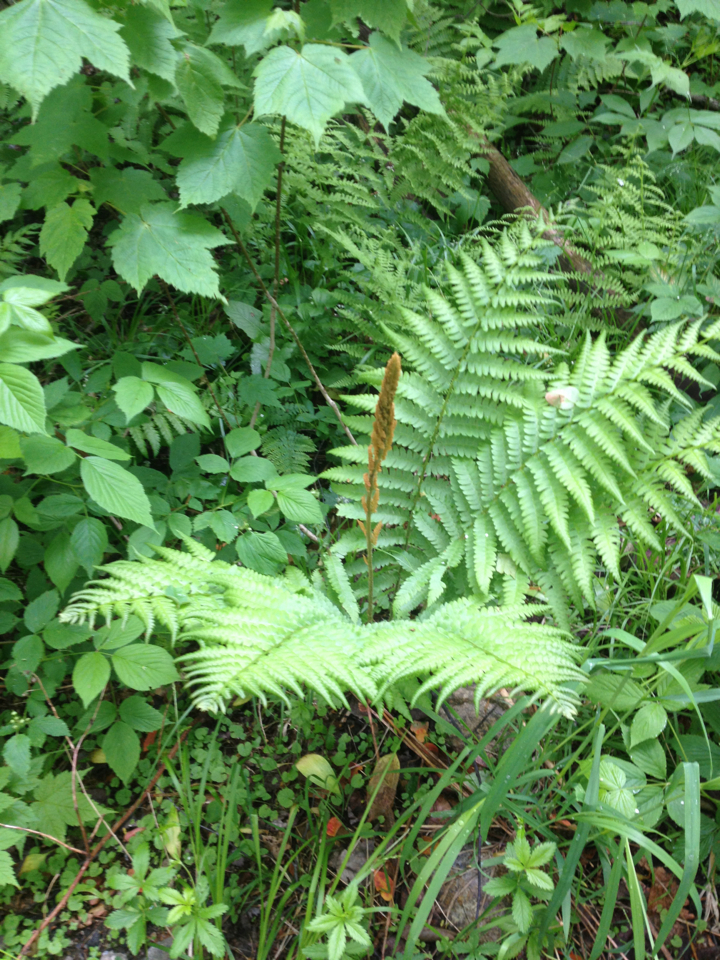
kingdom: Plantae
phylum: Tracheophyta
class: Polypodiopsida
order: Osmundales
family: Osmundaceae
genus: Osmundastrum
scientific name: Osmundastrum cinnamomeum
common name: Cinnamon fern
